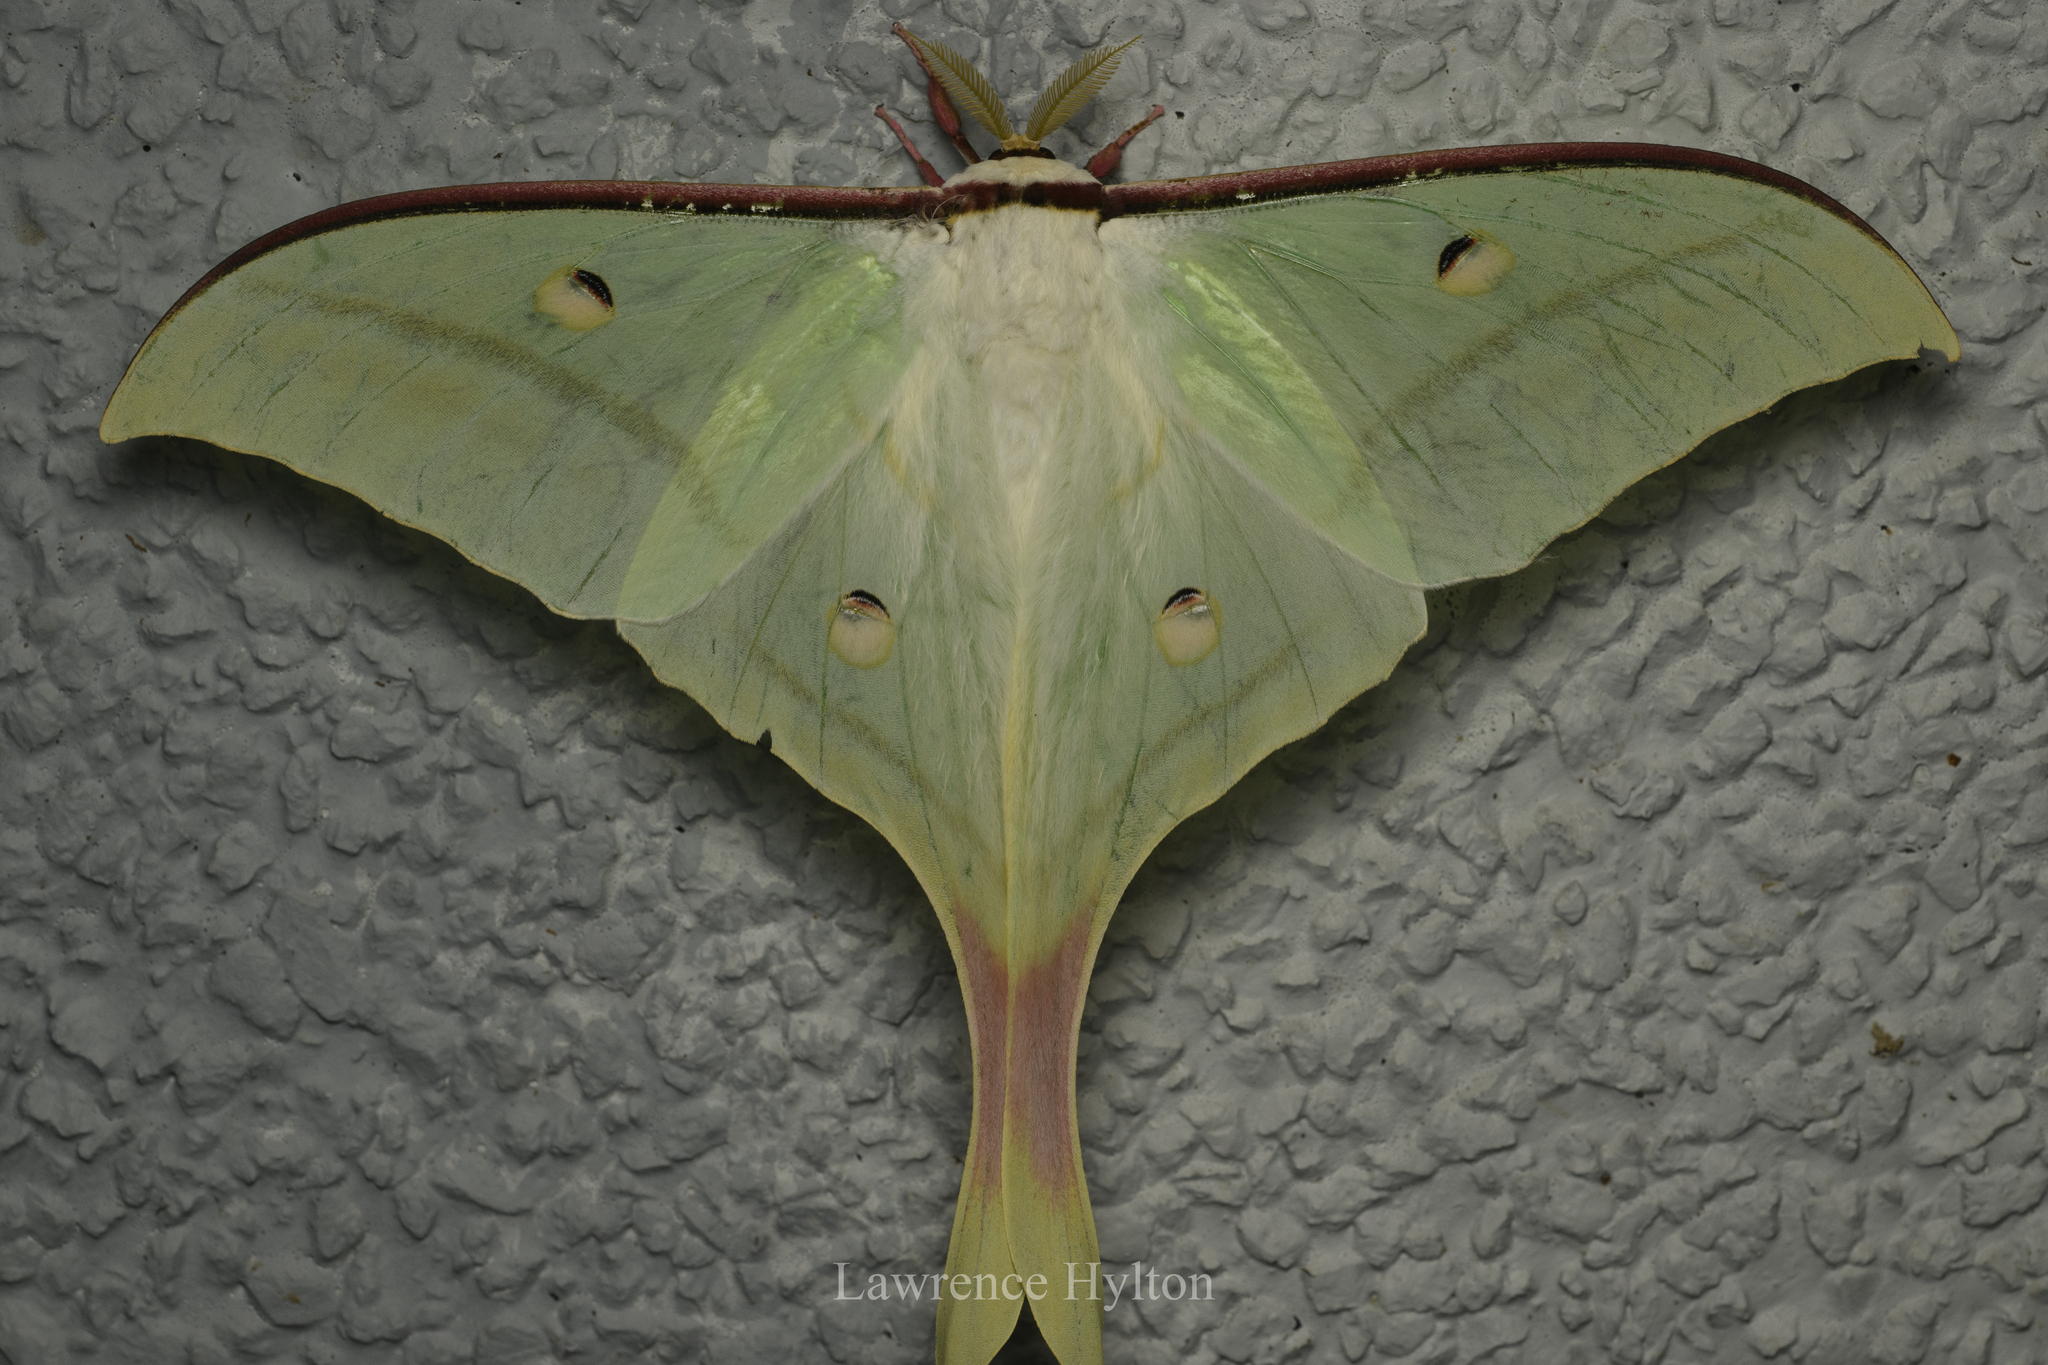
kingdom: Animalia
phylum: Arthropoda
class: Insecta
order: Lepidoptera
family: Saturniidae
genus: Actias
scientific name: Actias ningpoana
